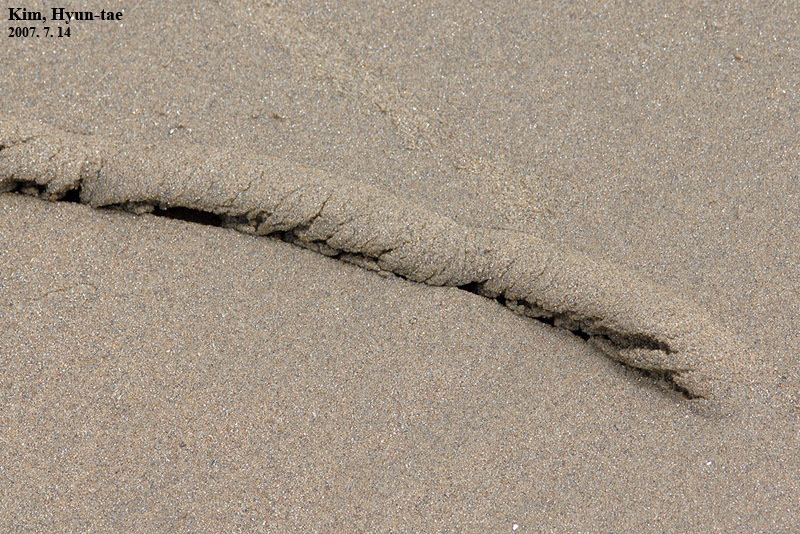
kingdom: Animalia
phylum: Mollusca
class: Gastropoda
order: Littorinimorpha
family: Naticidae
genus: Eunaticina
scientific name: Eunaticina papilla
